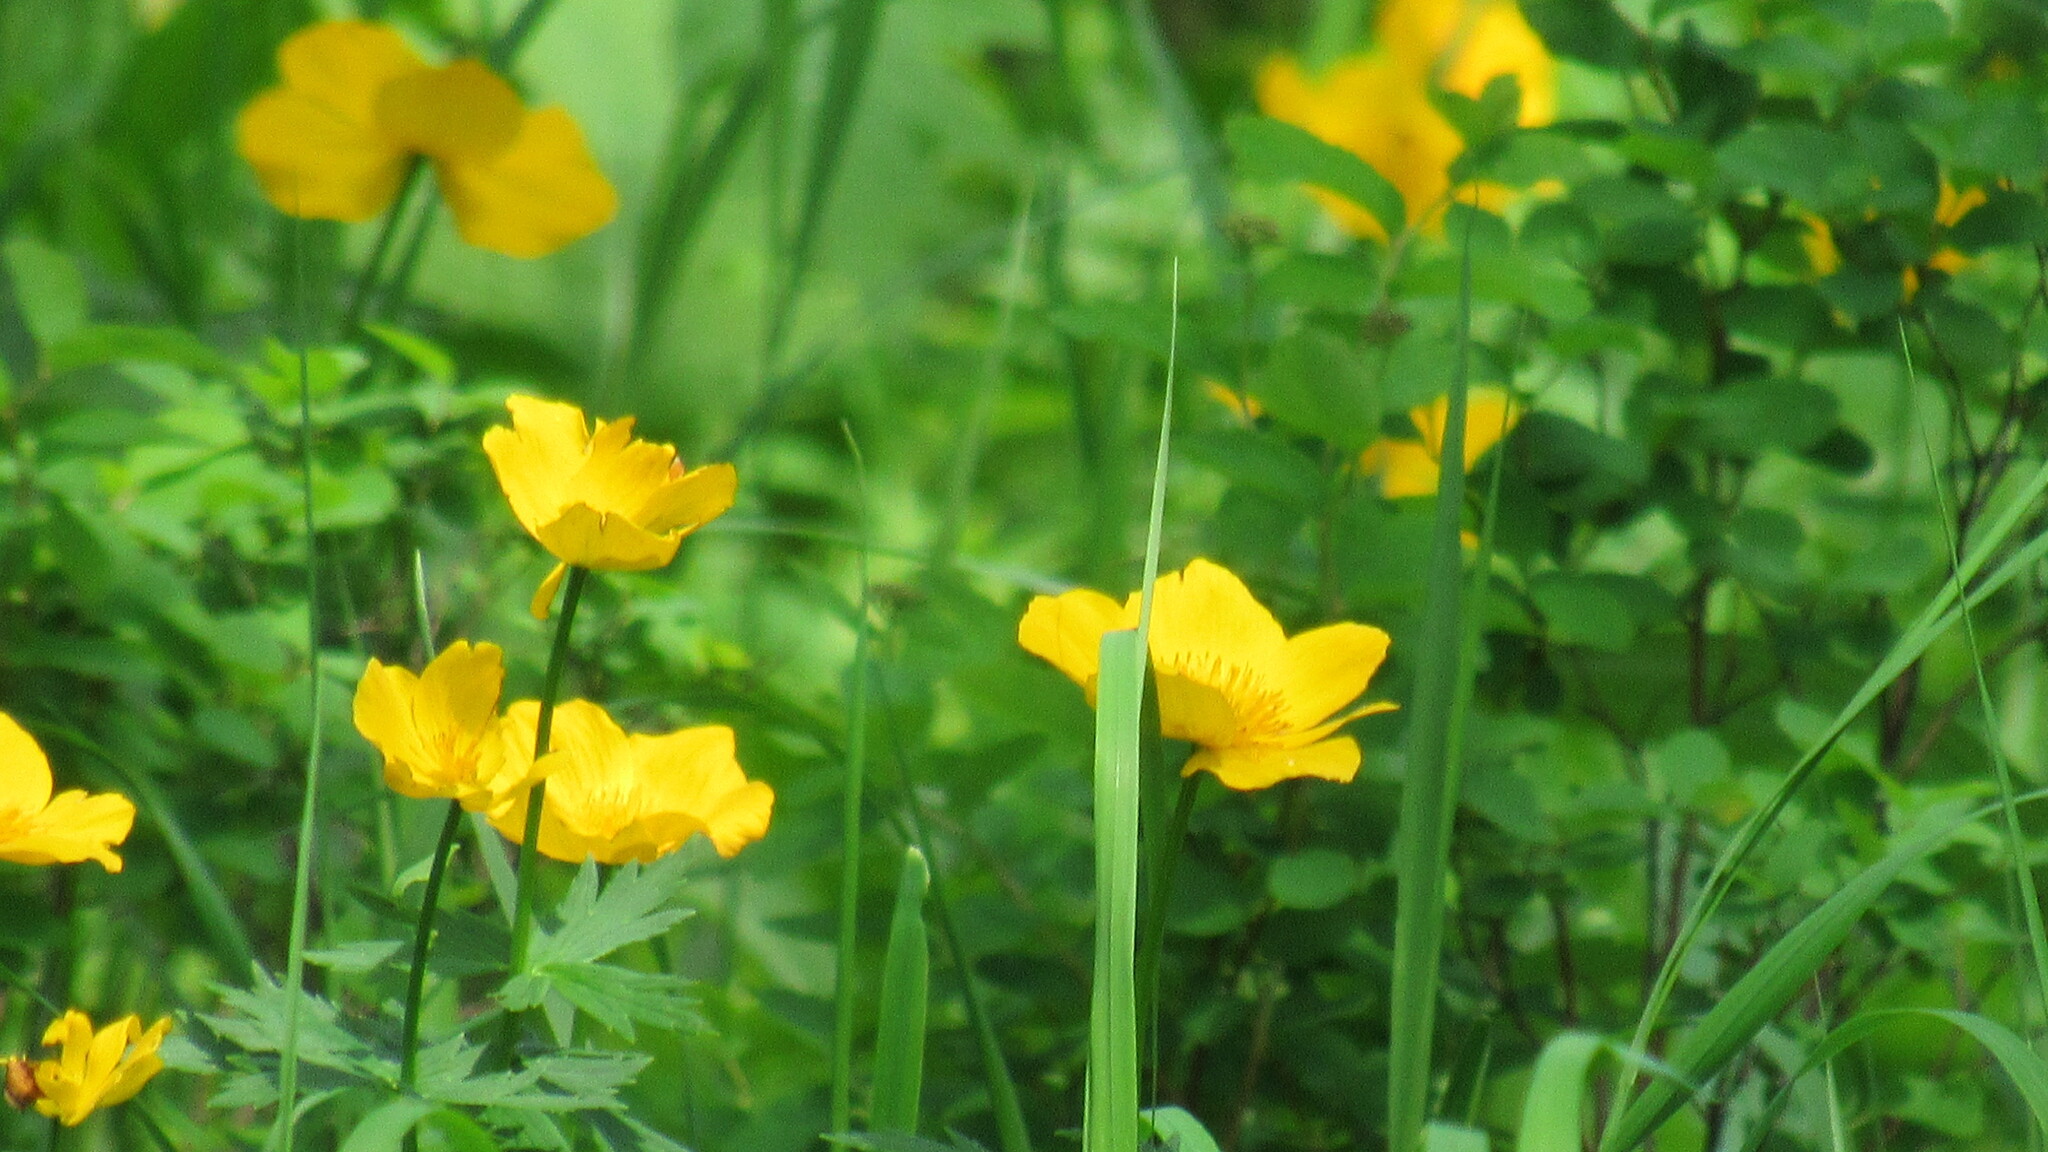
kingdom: Plantae
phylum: Tracheophyta
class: Magnoliopsida
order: Ranunculales
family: Ranunculaceae
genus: Trollius
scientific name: Trollius riederianus
